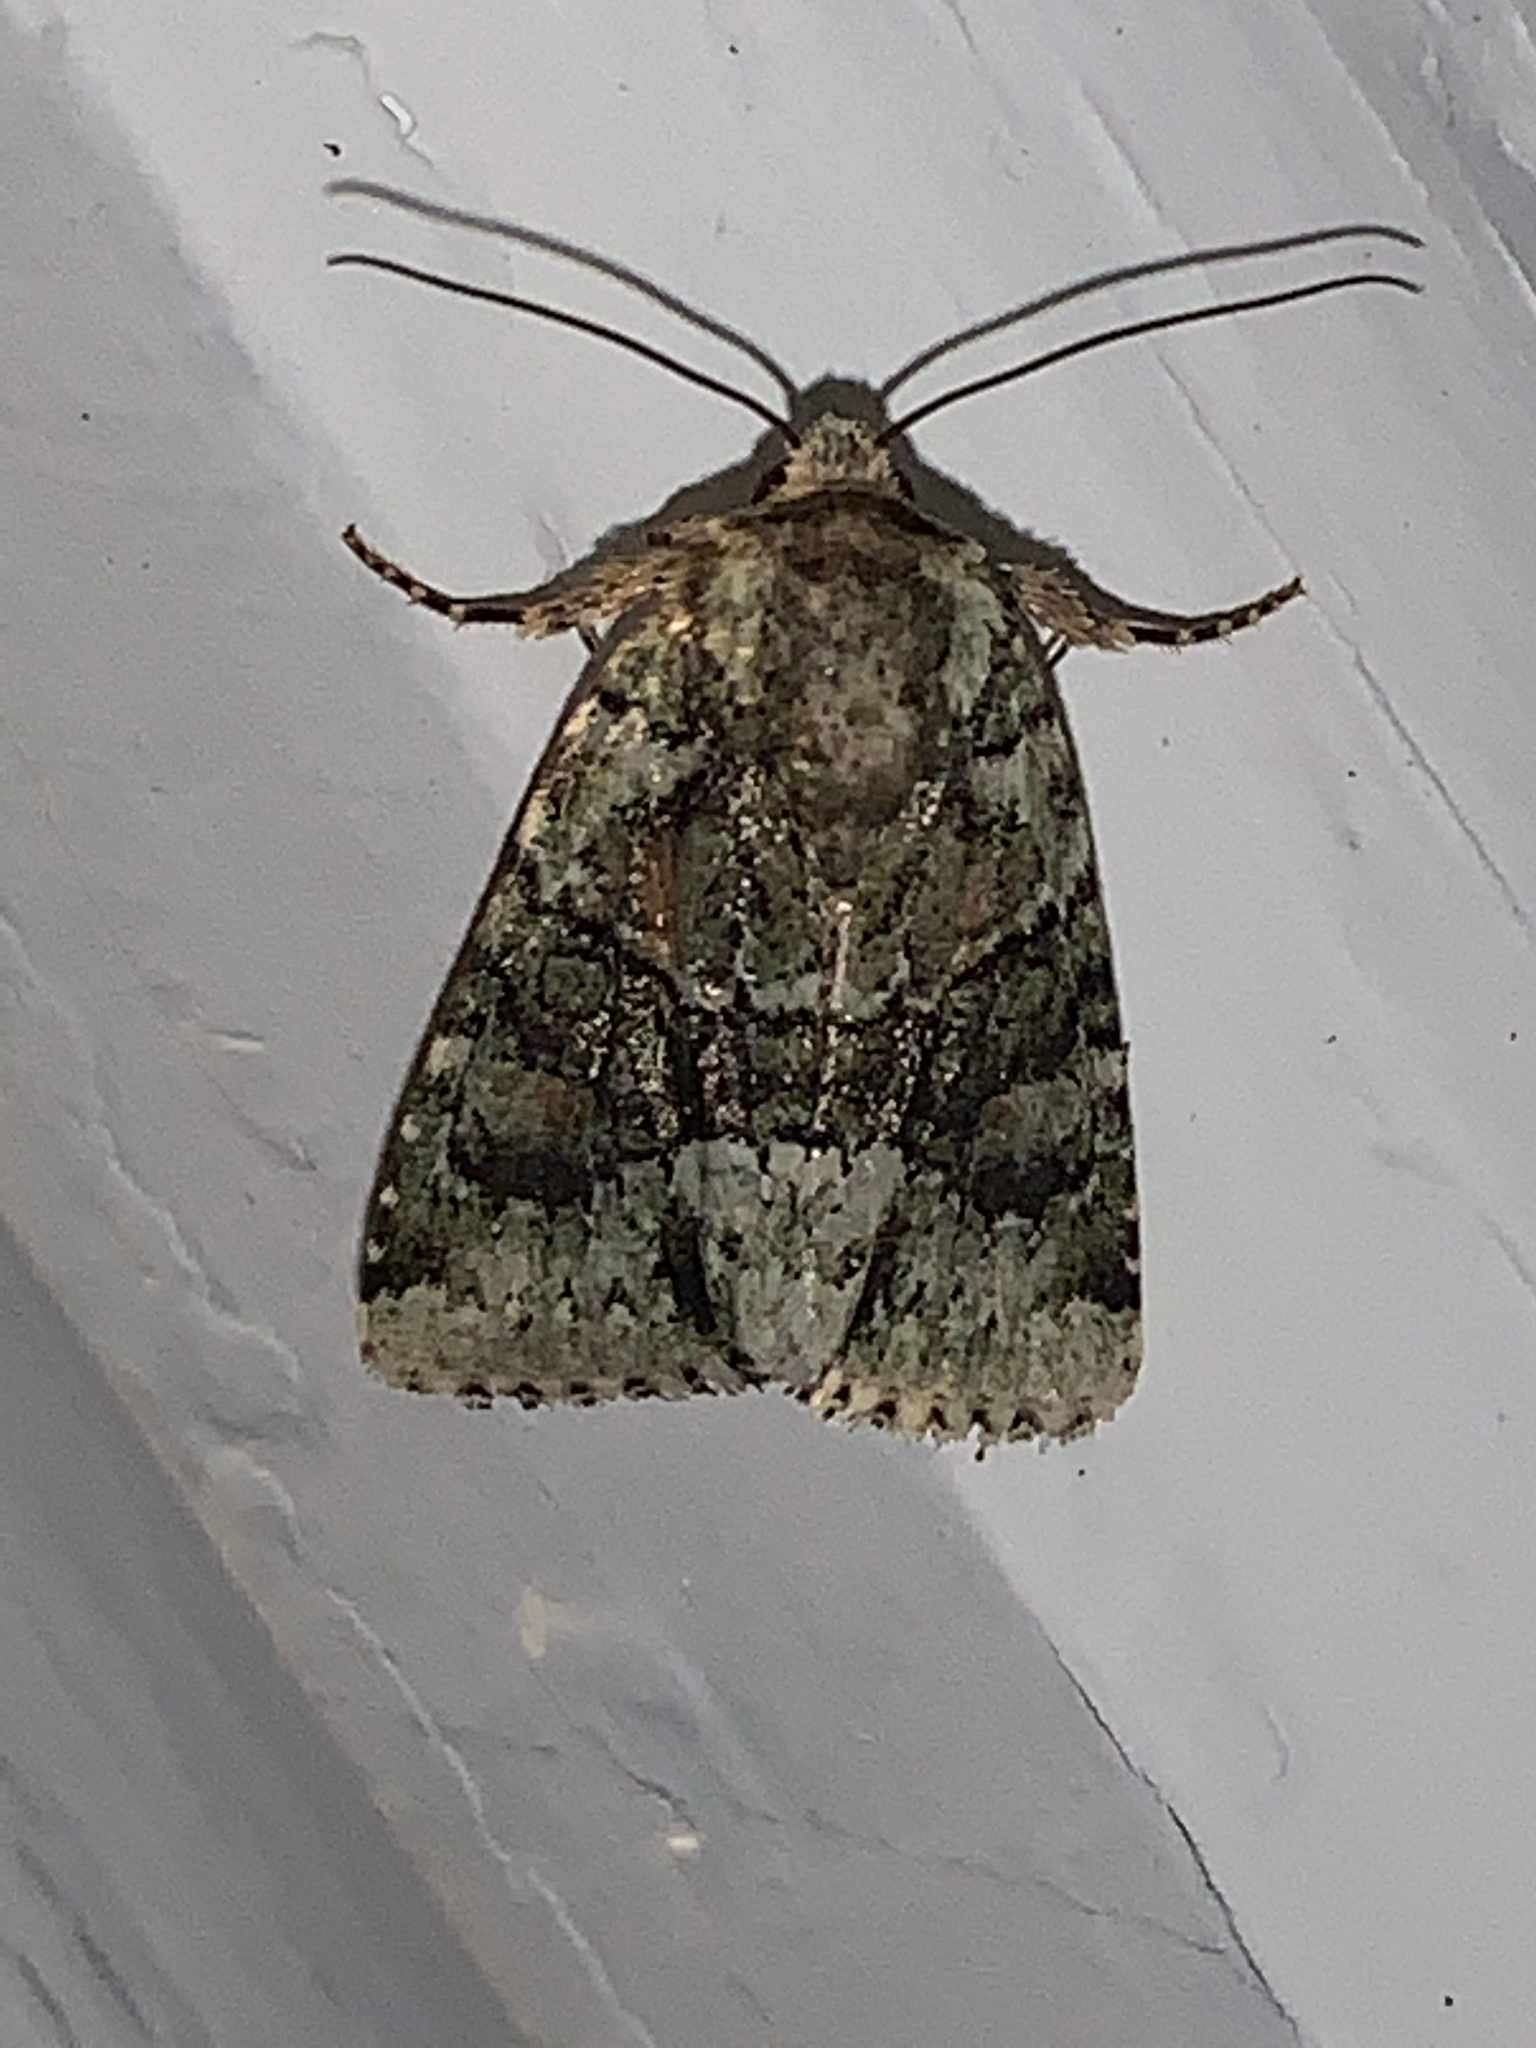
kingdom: Animalia
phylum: Arthropoda
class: Insecta
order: Lepidoptera
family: Noctuidae
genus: Lacinipolia
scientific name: Lacinipolia explicata
